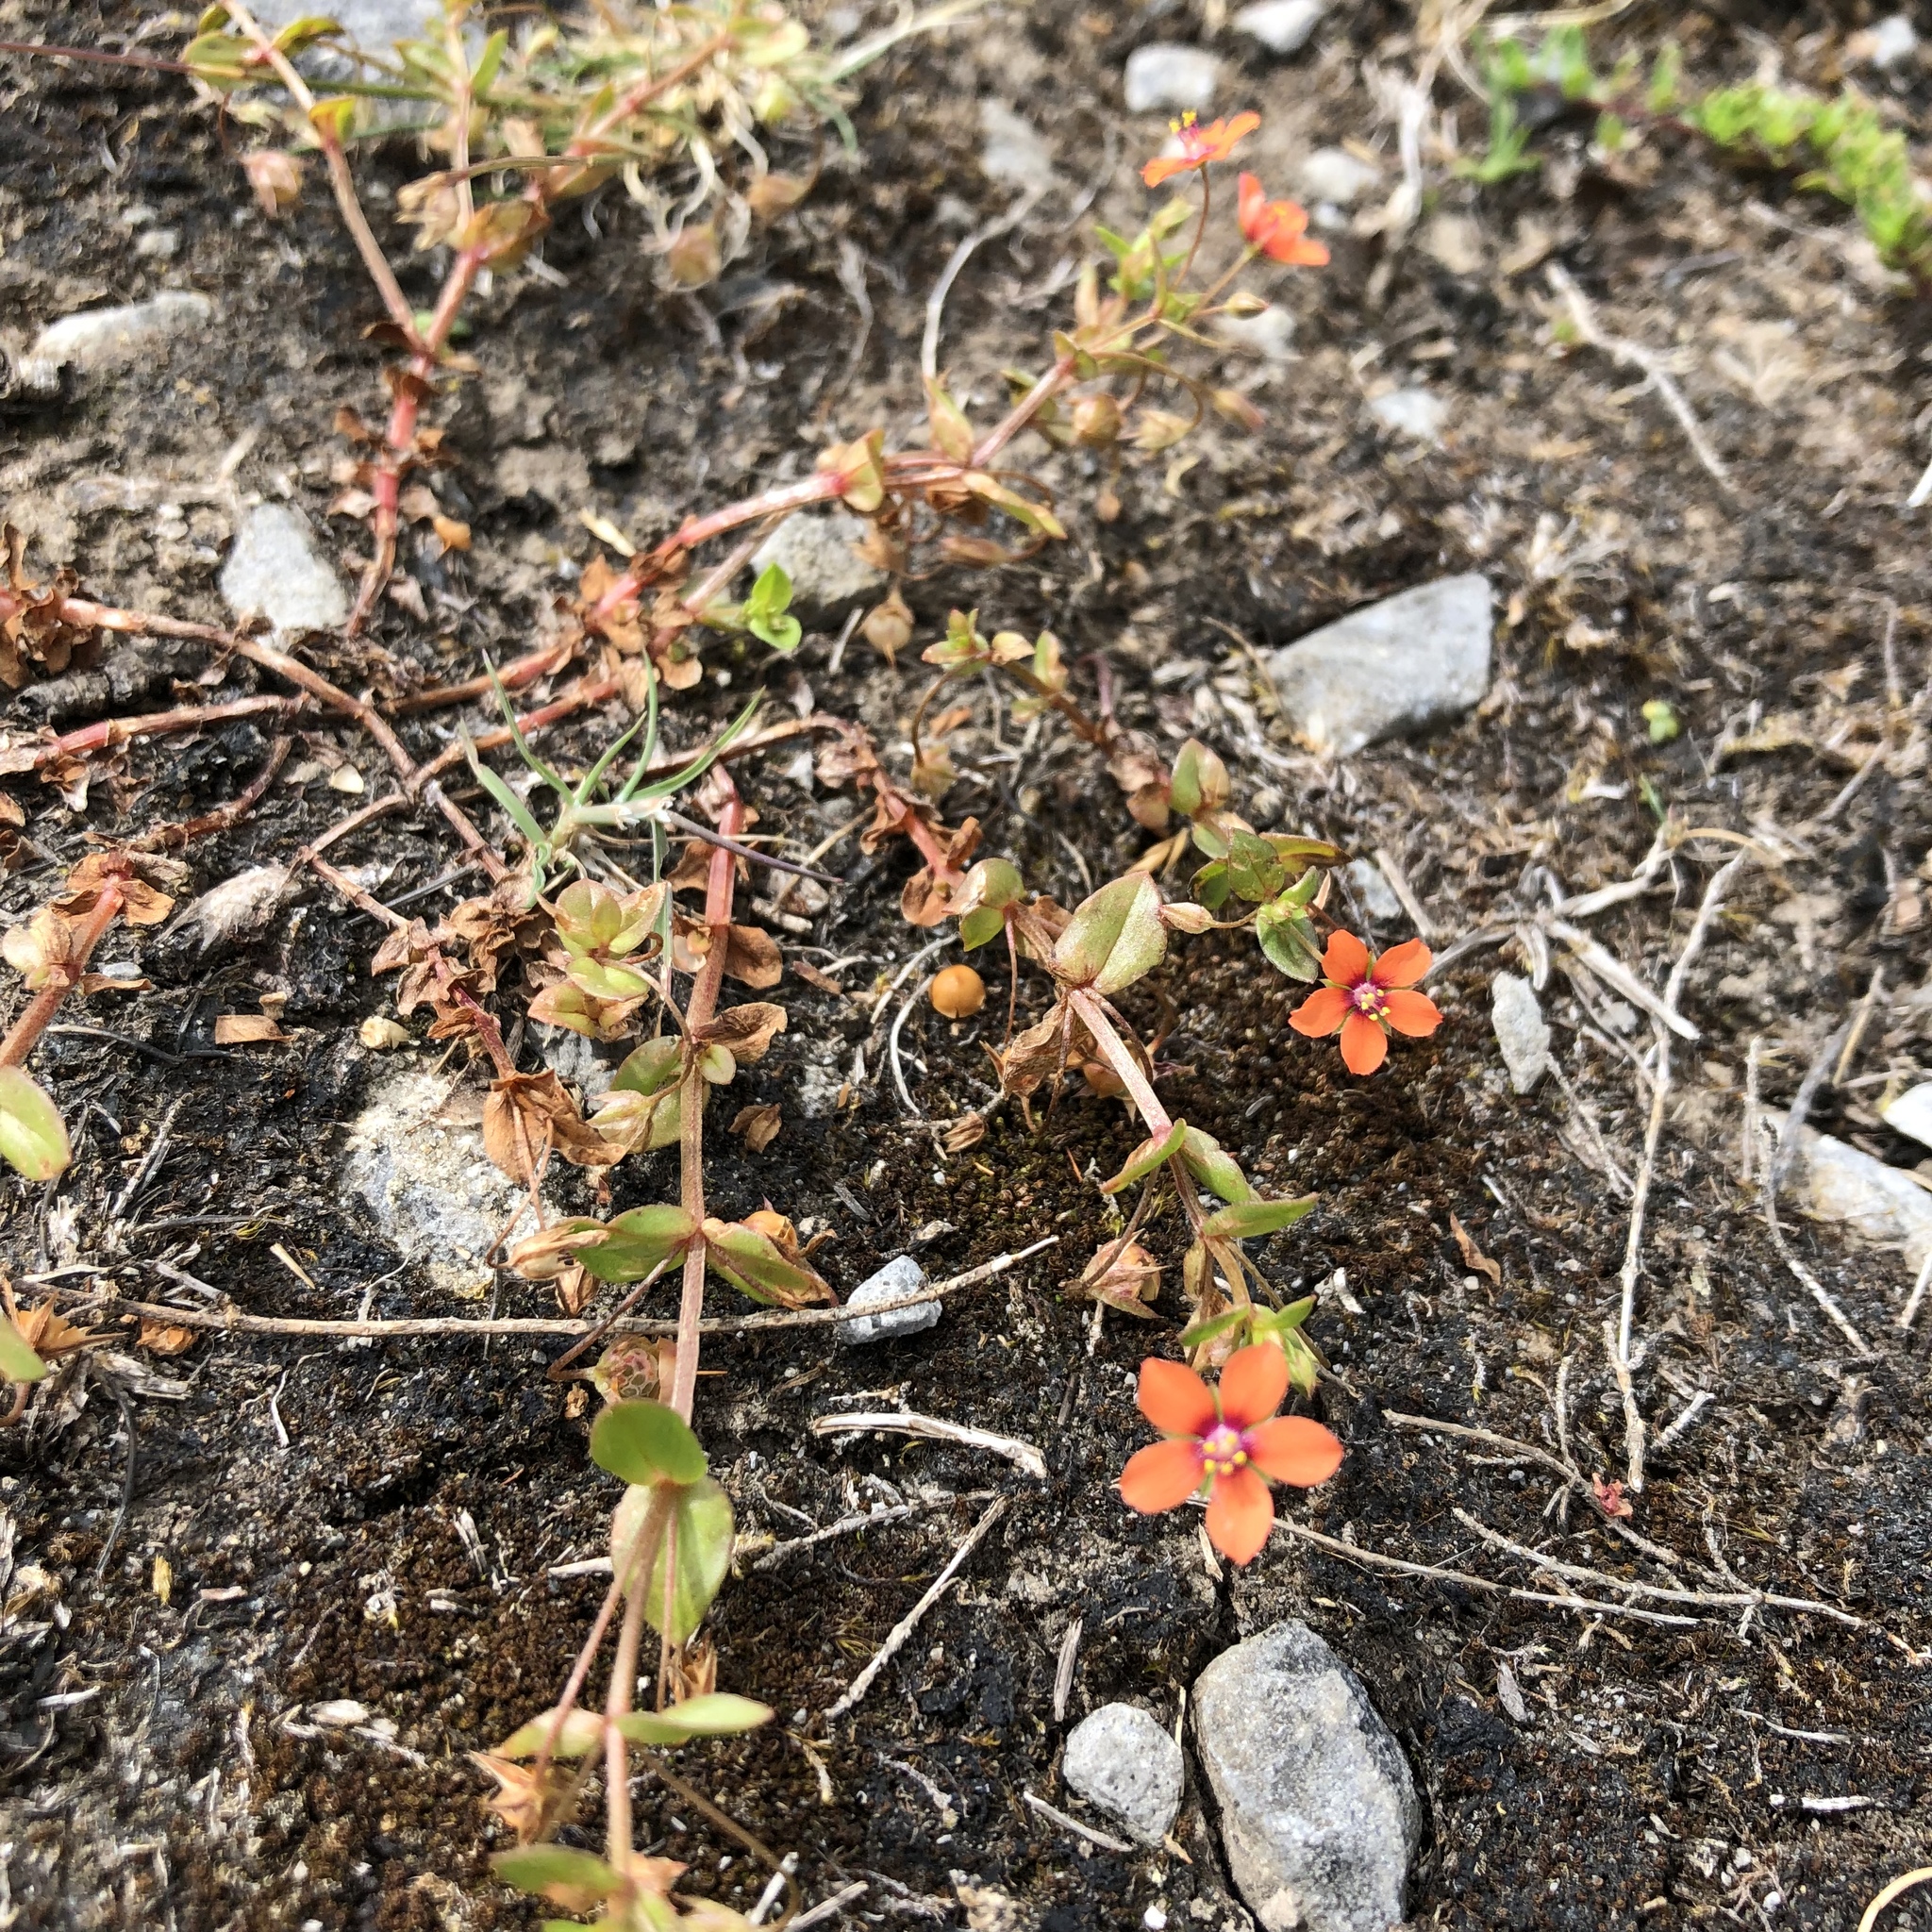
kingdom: Plantae
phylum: Tracheophyta
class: Magnoliopsida
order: Ericales
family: Primulaceae
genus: Lysimachia
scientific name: Lysimachia arvensis
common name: Scarlet pimpernel
